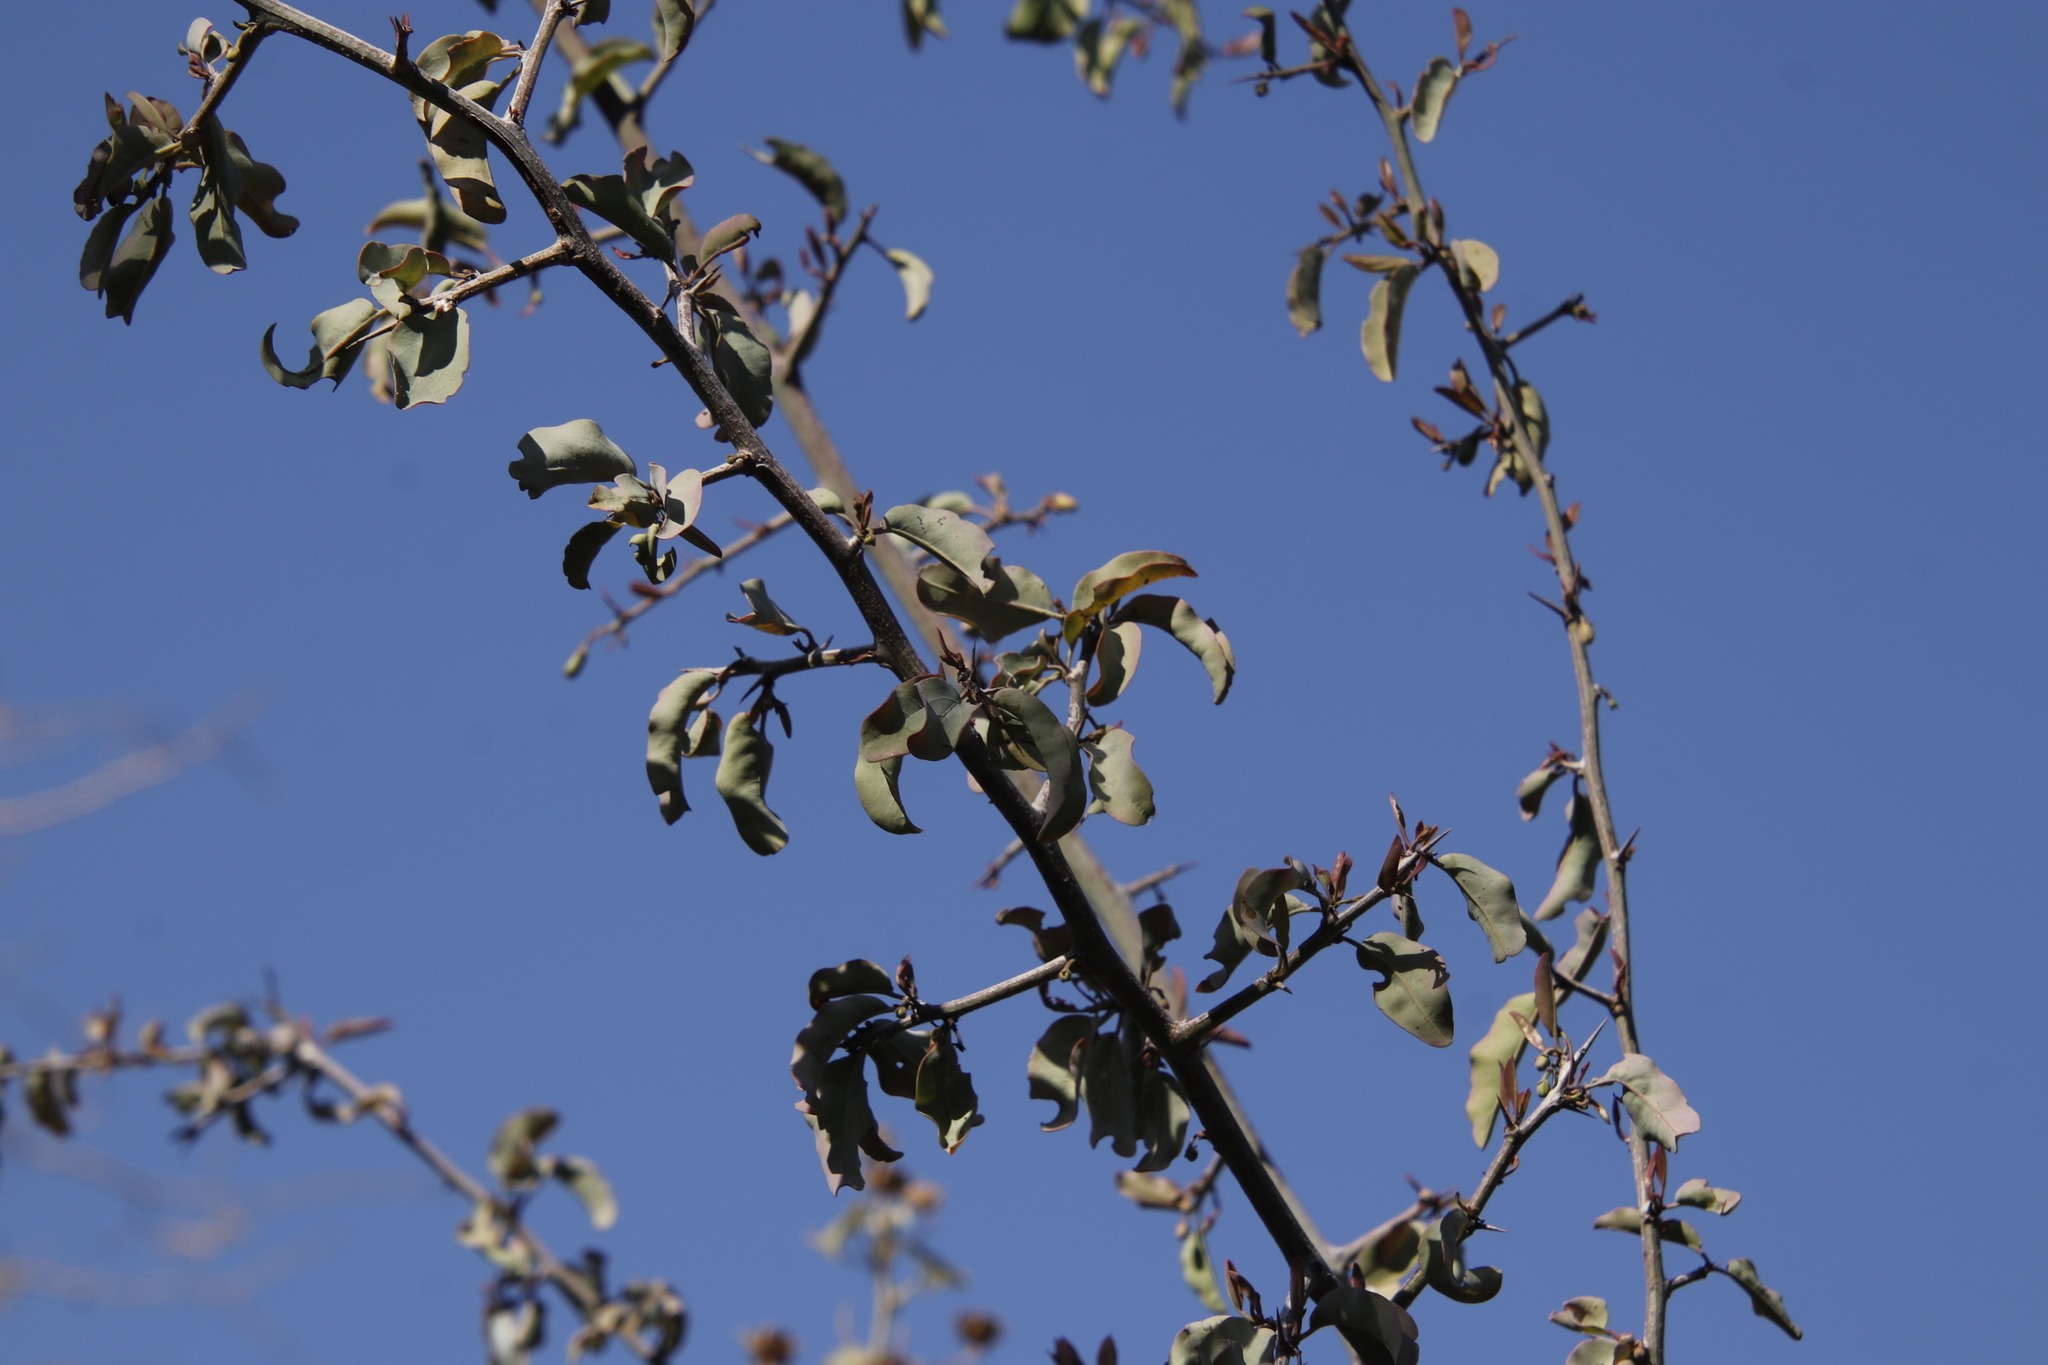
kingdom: Plantae
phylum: Tracheophyta
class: Magnoliopsida
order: Myrtales
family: Combretaceae
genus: Terminalia
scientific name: Terminalia prunioides
